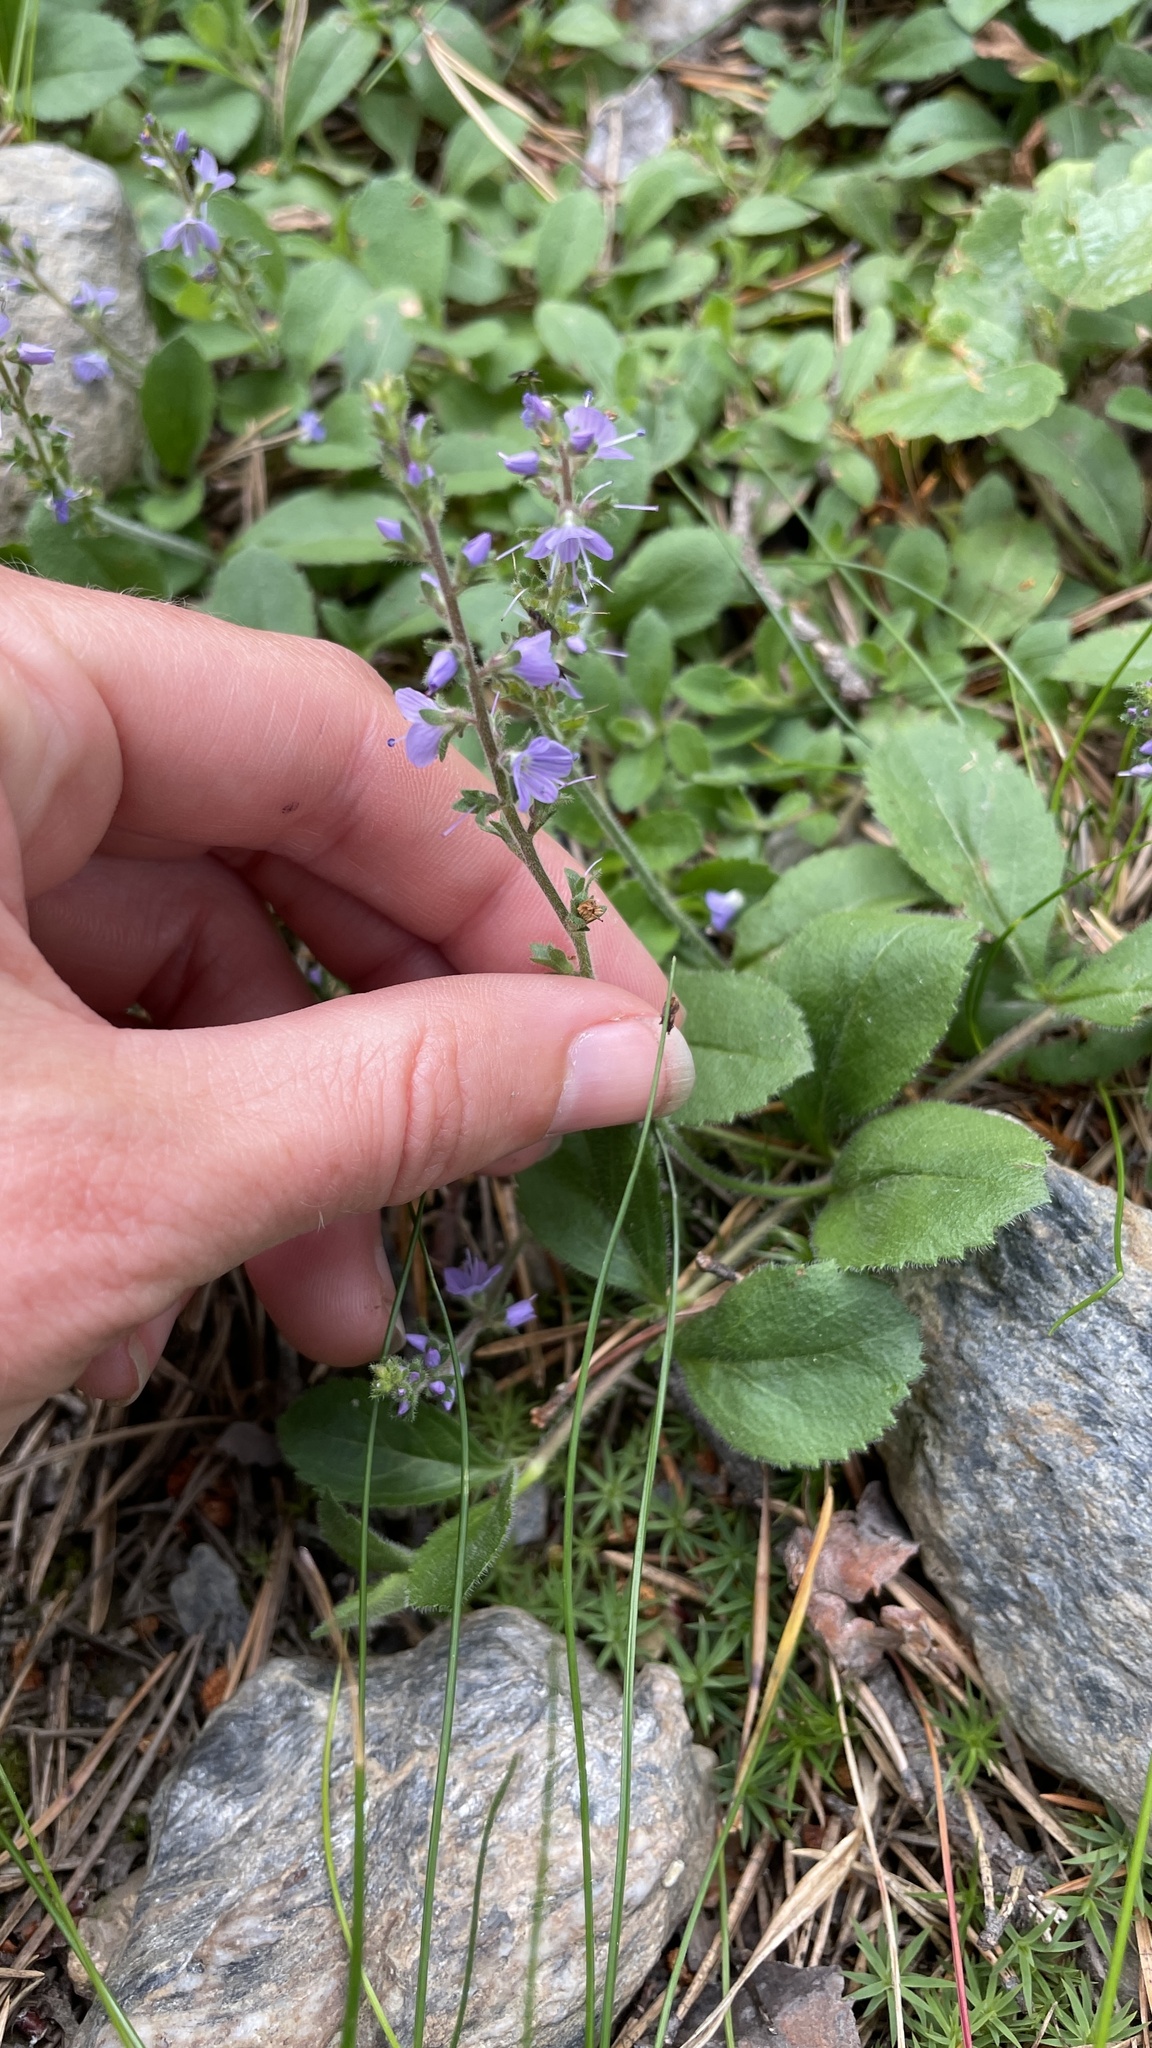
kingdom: Plantae
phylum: Tracheophyta
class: Magnoliopsida
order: Lamiales
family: Plantaginaceae
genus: Veronica
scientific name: Veronica officinalis
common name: Common speedwell
